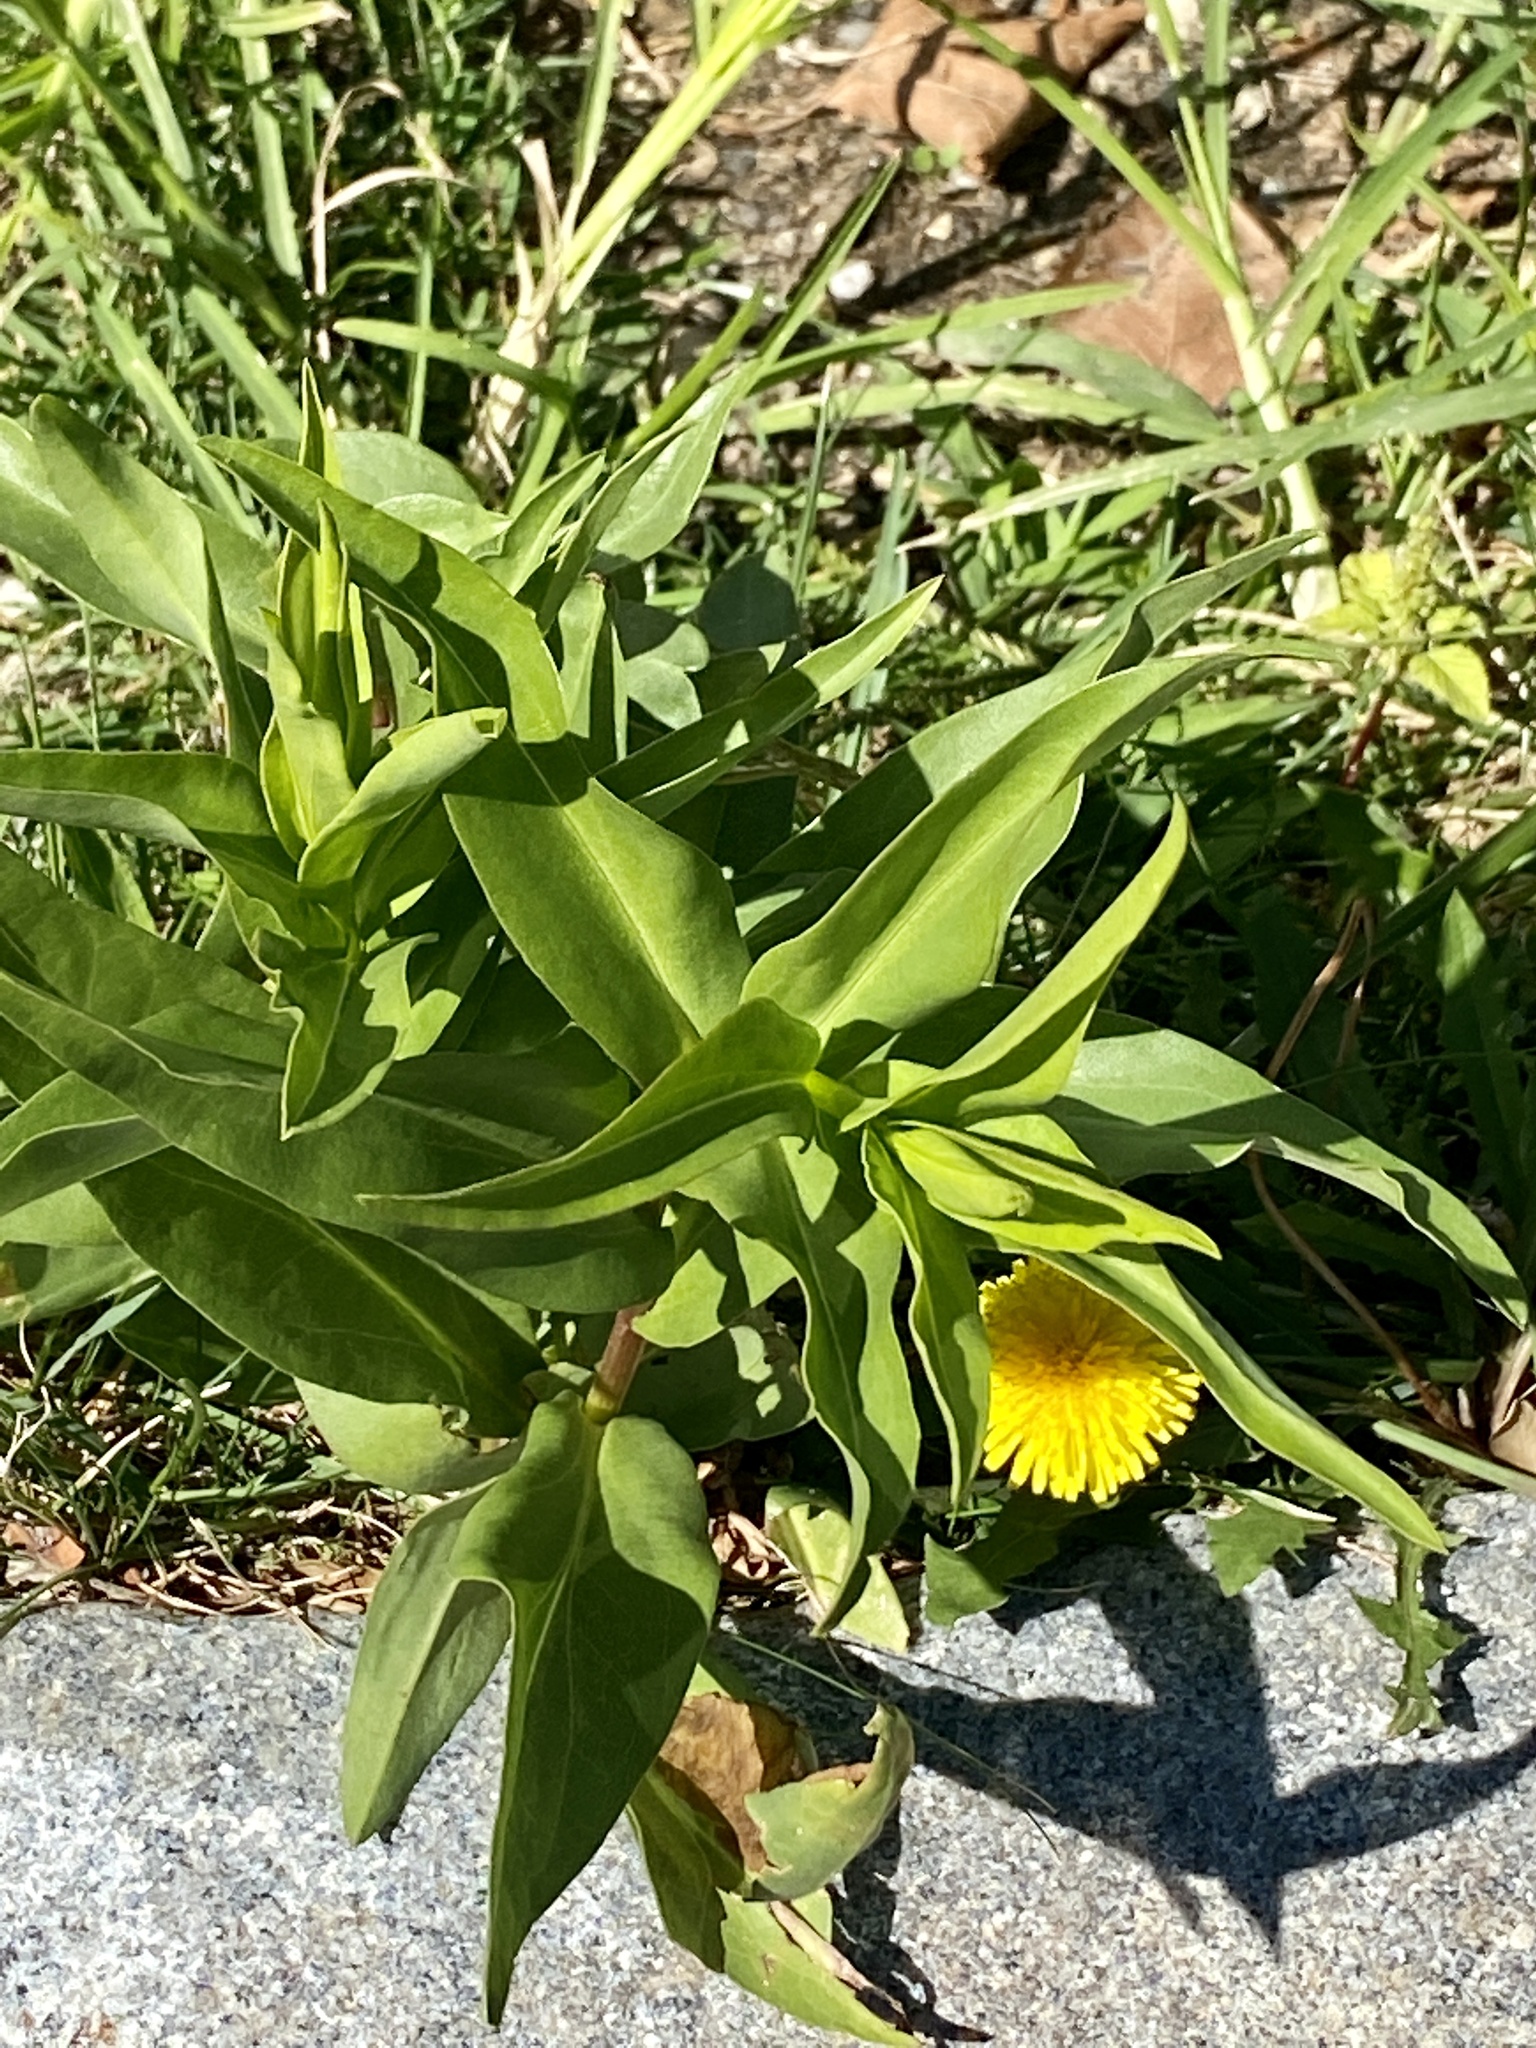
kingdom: Plantae
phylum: Tracheophyta
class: Magnoliopsida
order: Asterales
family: Asteraceae
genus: Solidago
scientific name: Solidago sempervirens
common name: Salt-marsh goldenrod
